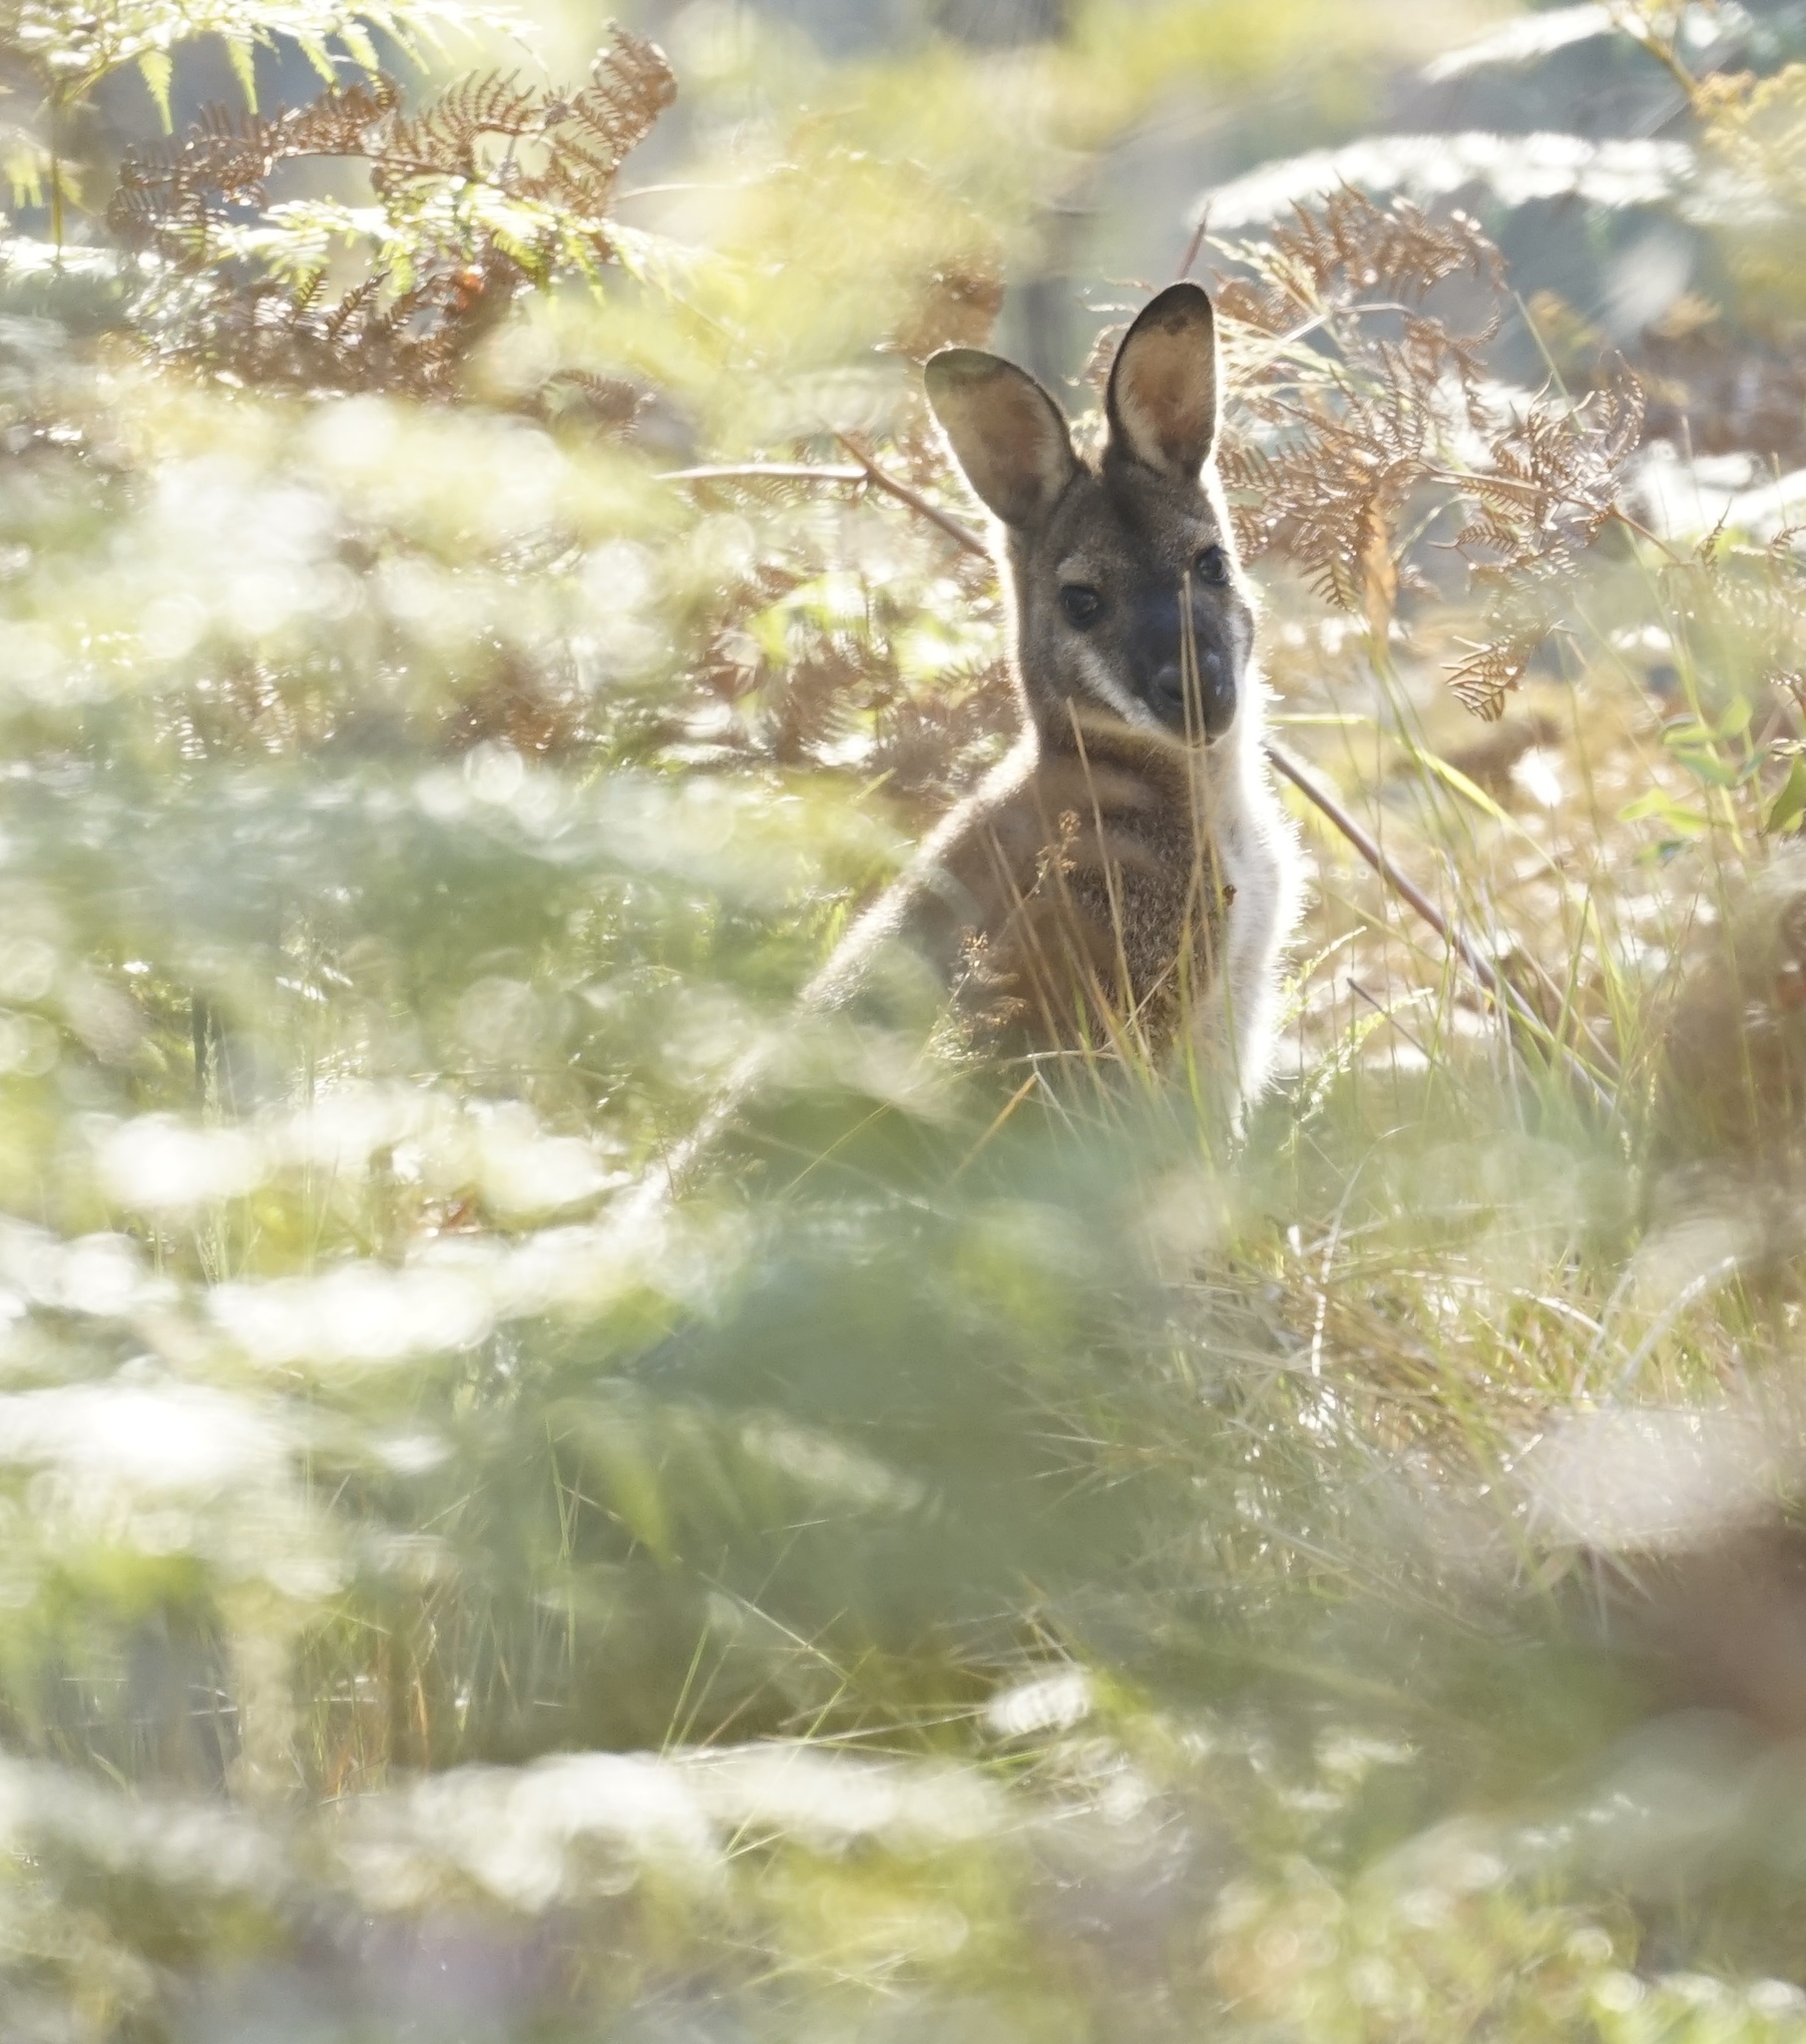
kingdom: Animalia
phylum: Chordata
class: Mammalia
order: Diprotodontia
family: Macropodidae
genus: Notamacropus
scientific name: Notamacropus rufogriseus
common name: Red-necked wallaby
